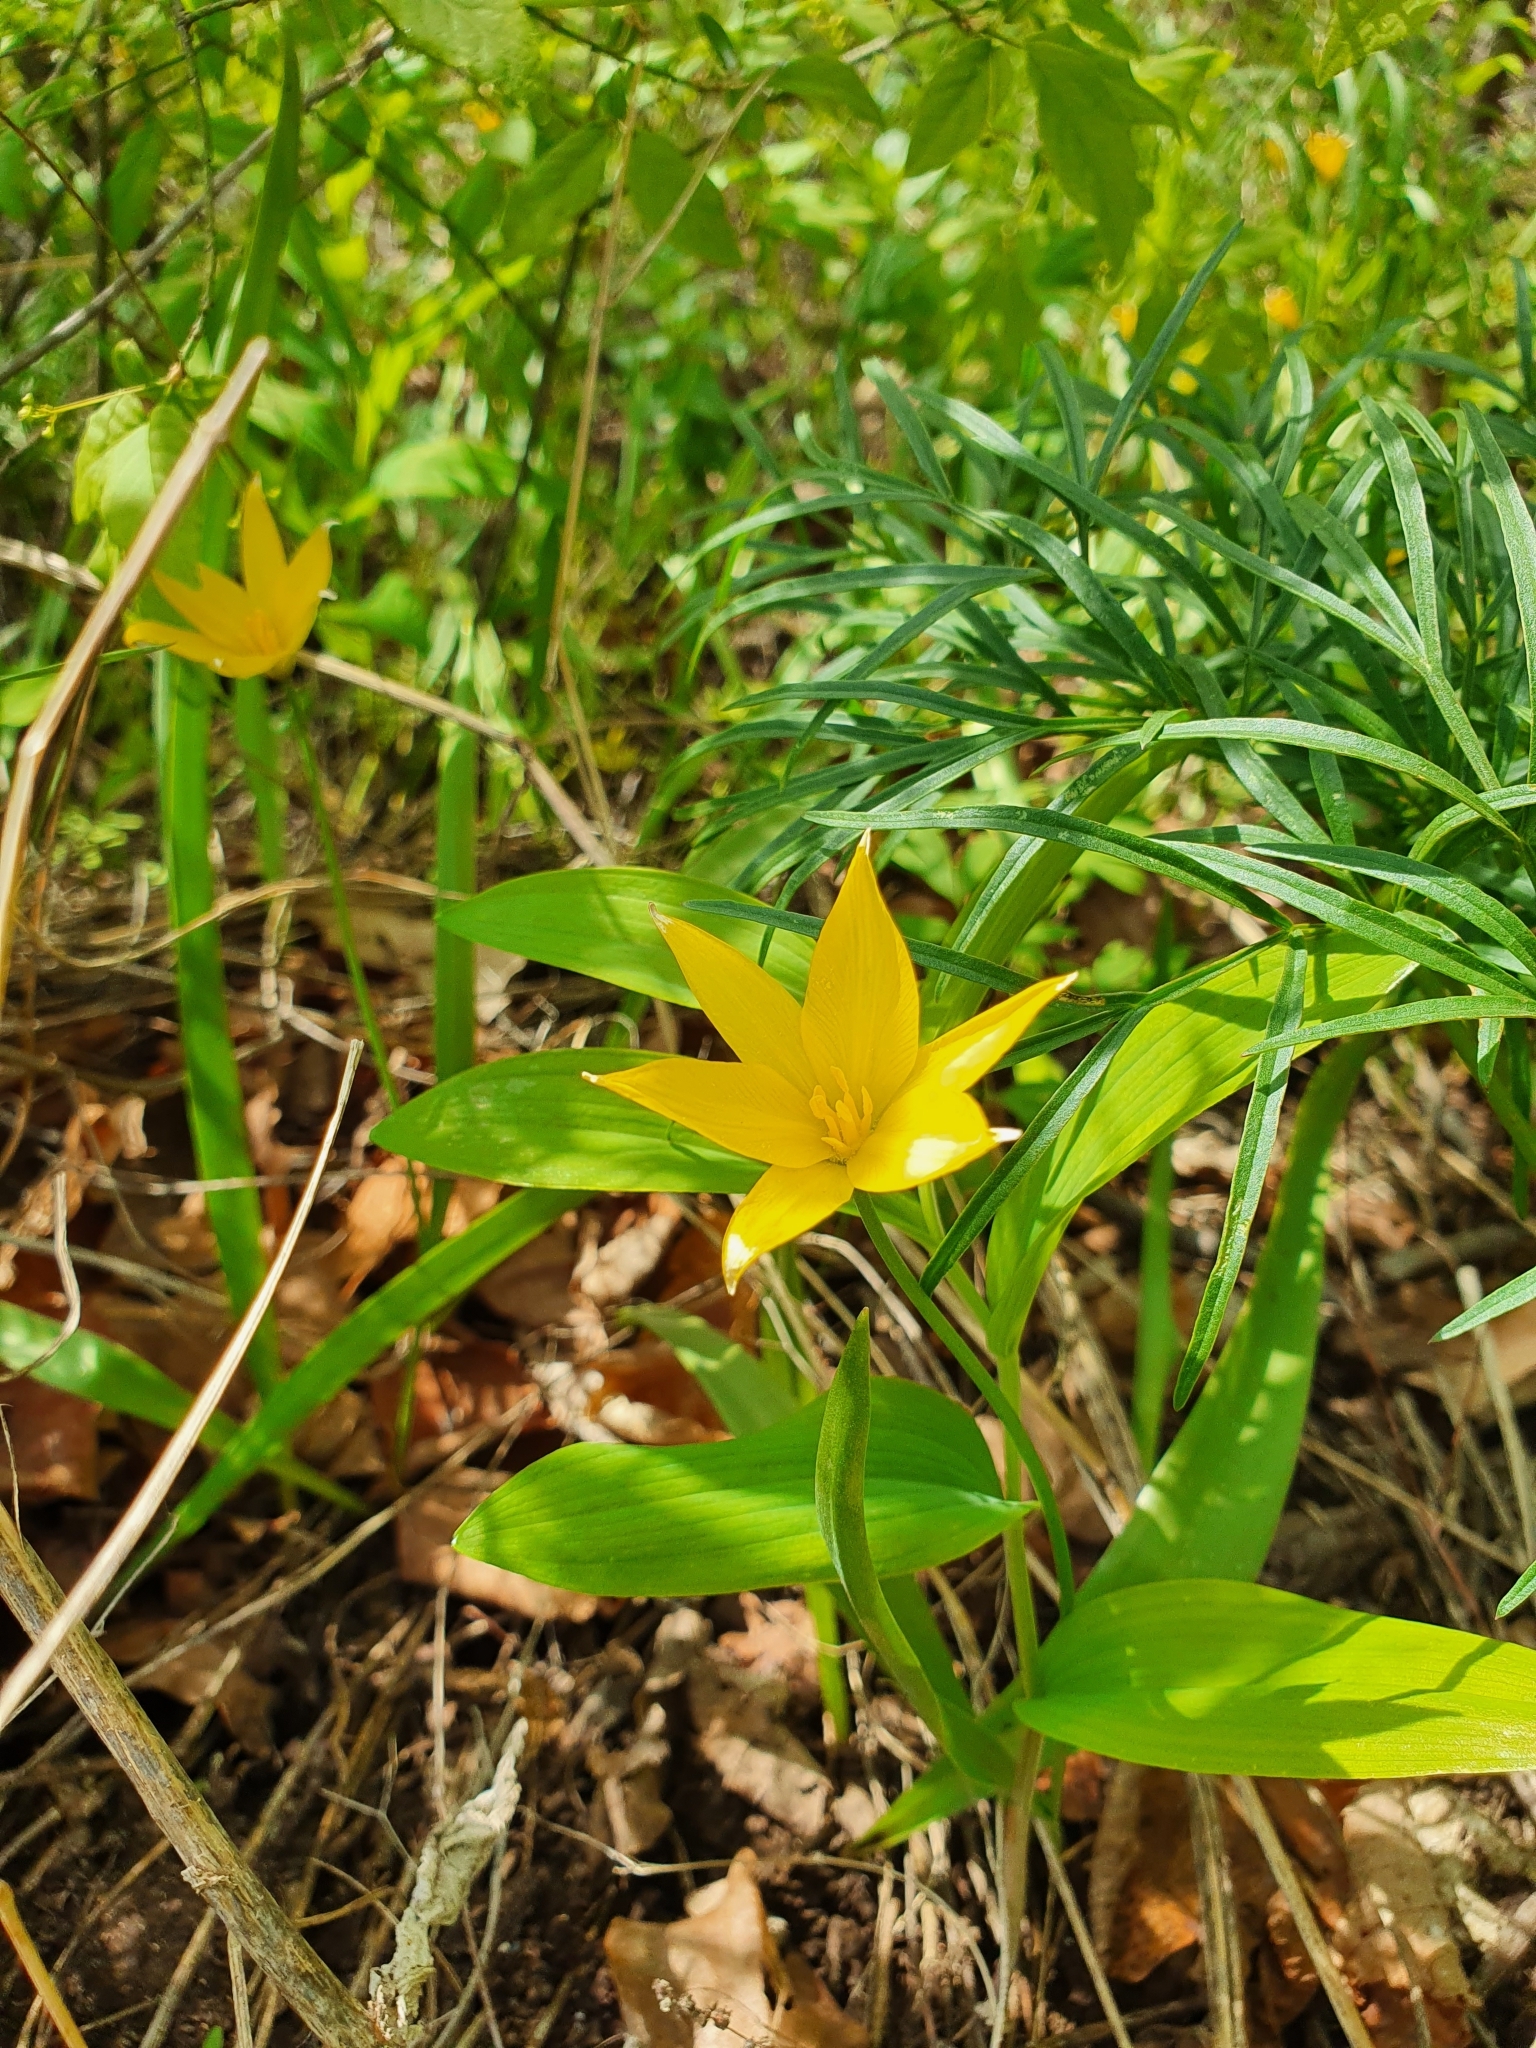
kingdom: Plantae
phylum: Tracheophyta
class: Liliopsida
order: Liliales
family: Liliaceae
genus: Tulipa
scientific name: Tulipa sylvestris
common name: Wild tulip
